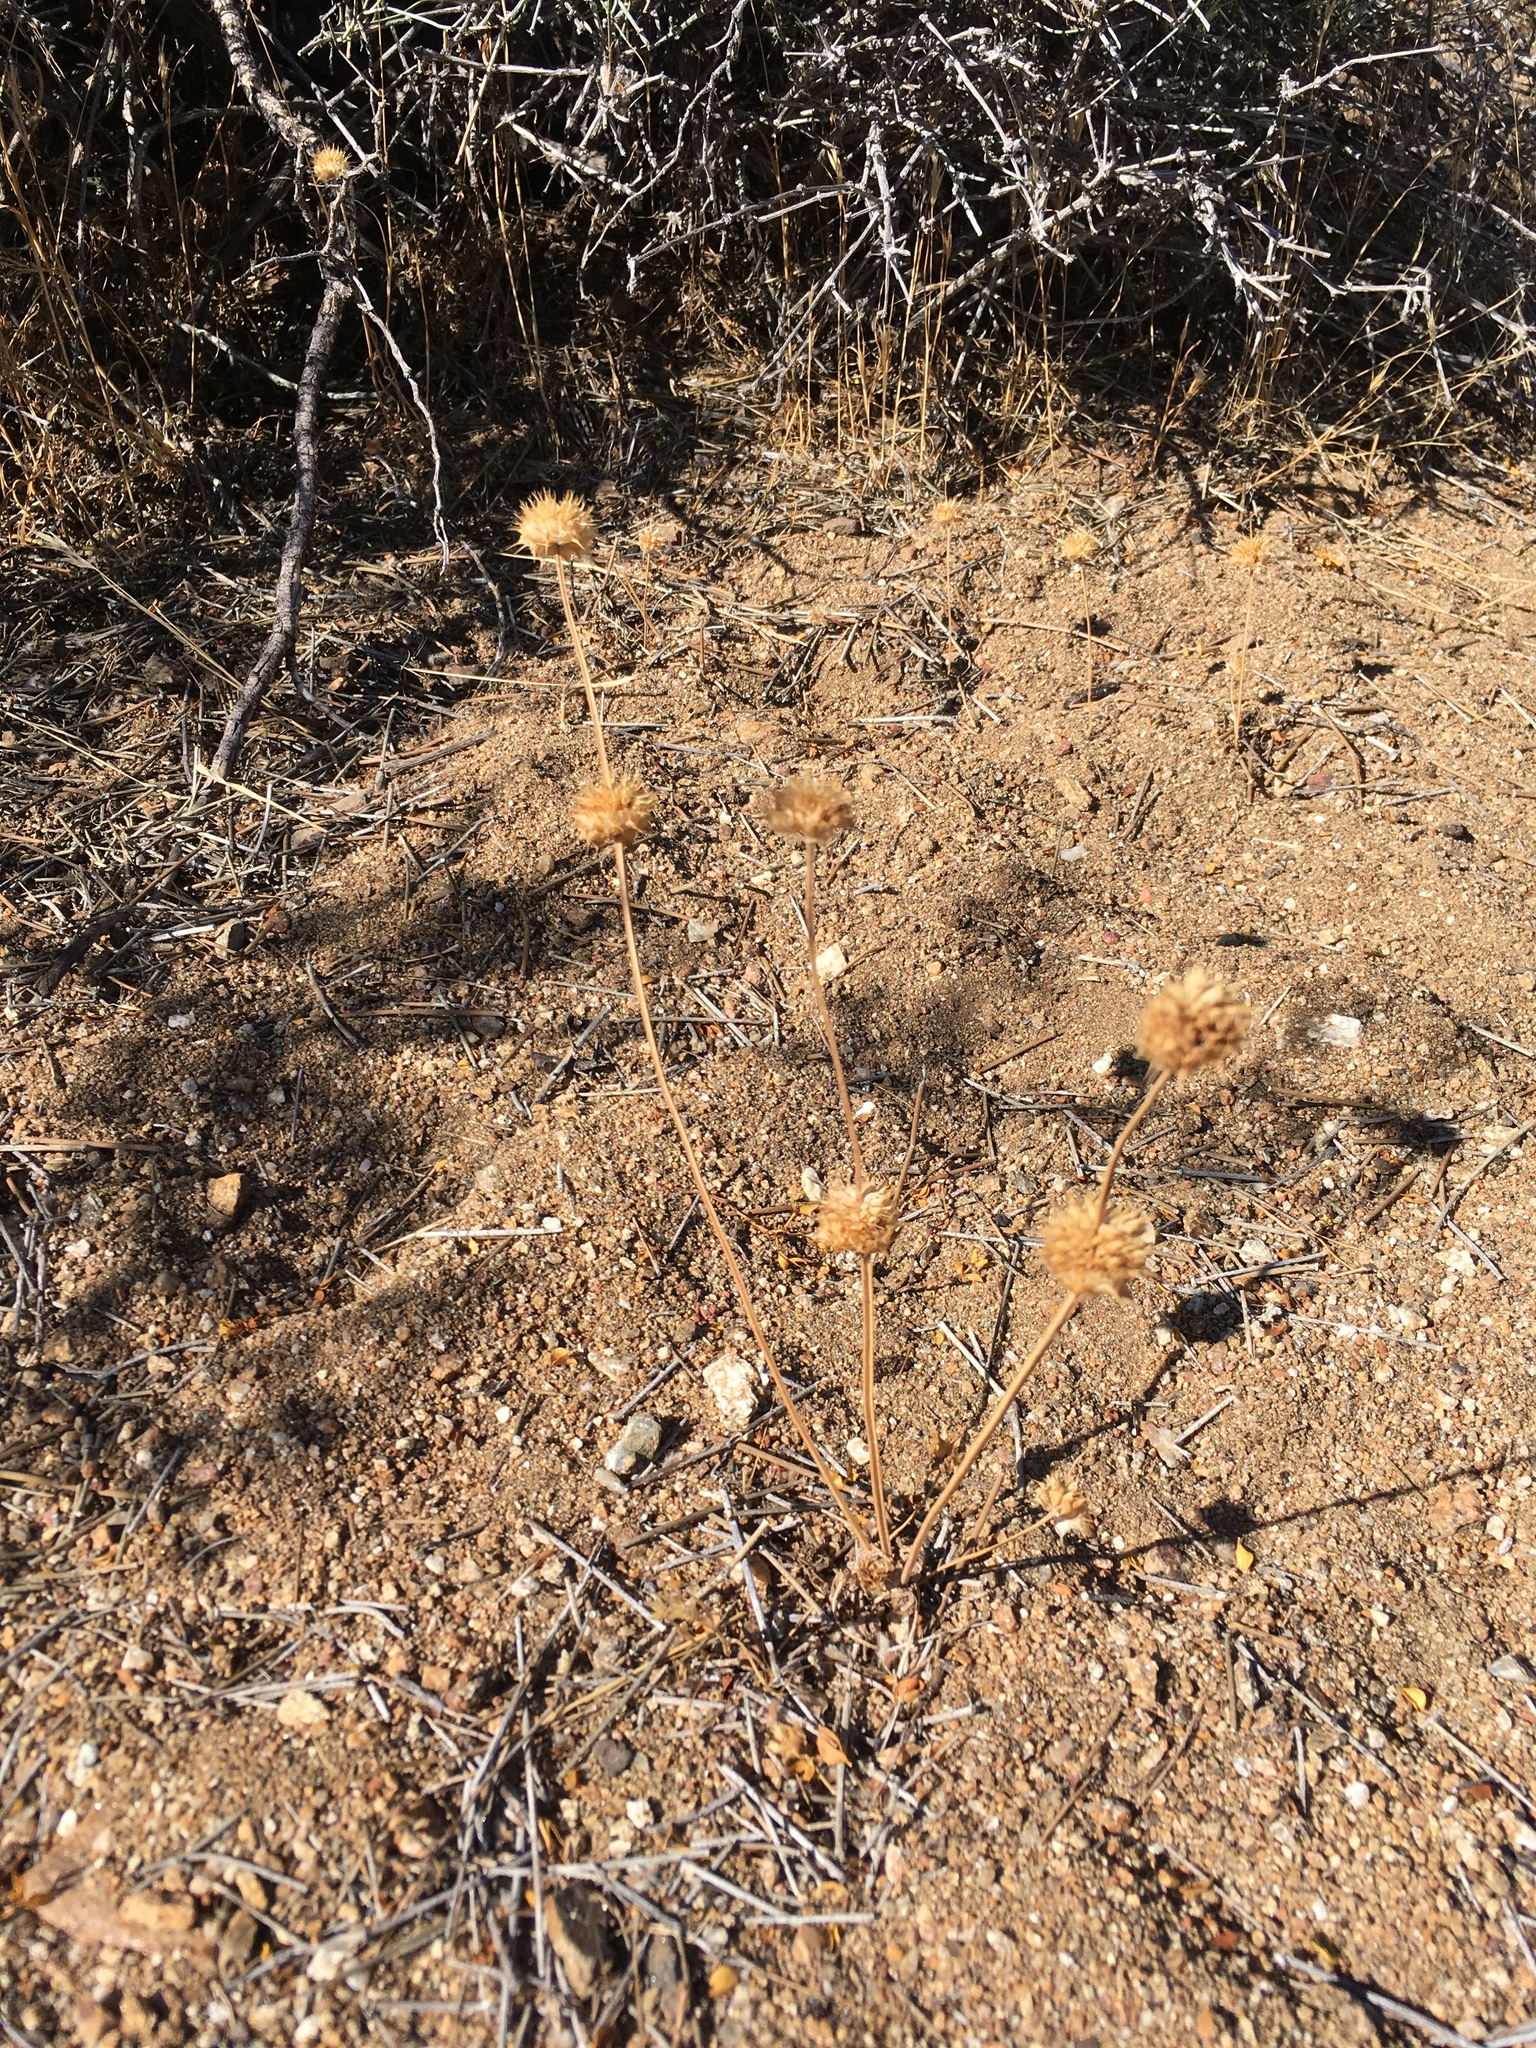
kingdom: Plantae
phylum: Tracheophyta
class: Magnoliopsida
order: Lamiales
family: Lamiaceae
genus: Salvia
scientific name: Salvia columbariae
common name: Chia
